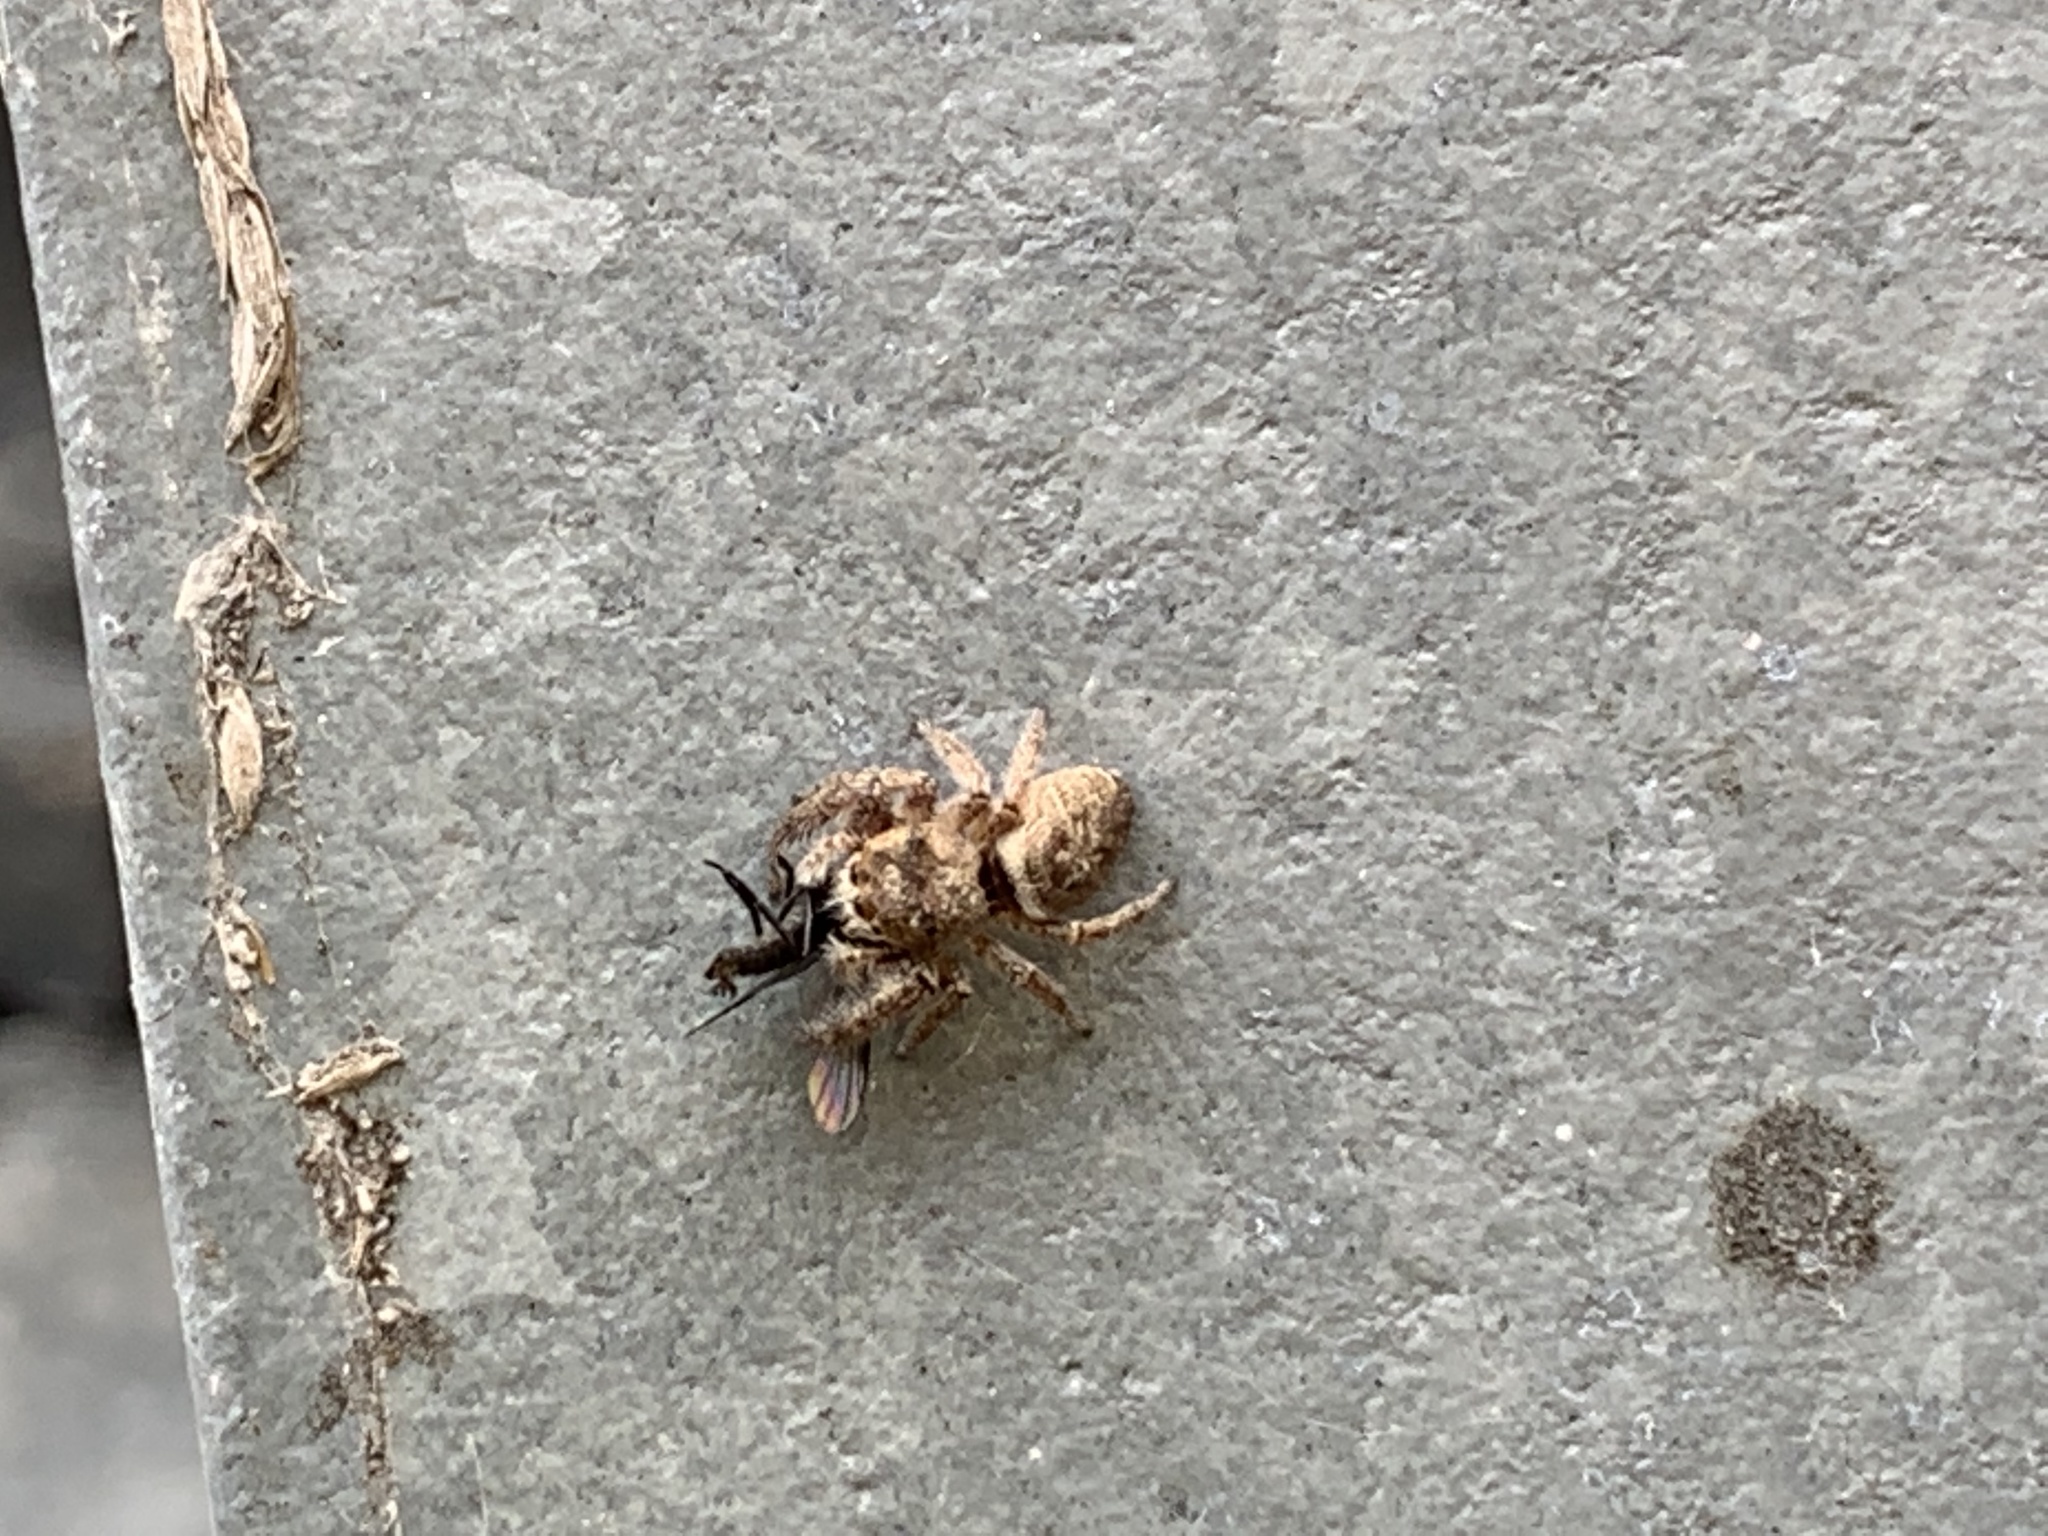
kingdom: Animalia
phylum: Arthropoda
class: Arachnida
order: Araneae
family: Salticidae
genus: Eris
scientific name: Eris militaris
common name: Bronze jumper
